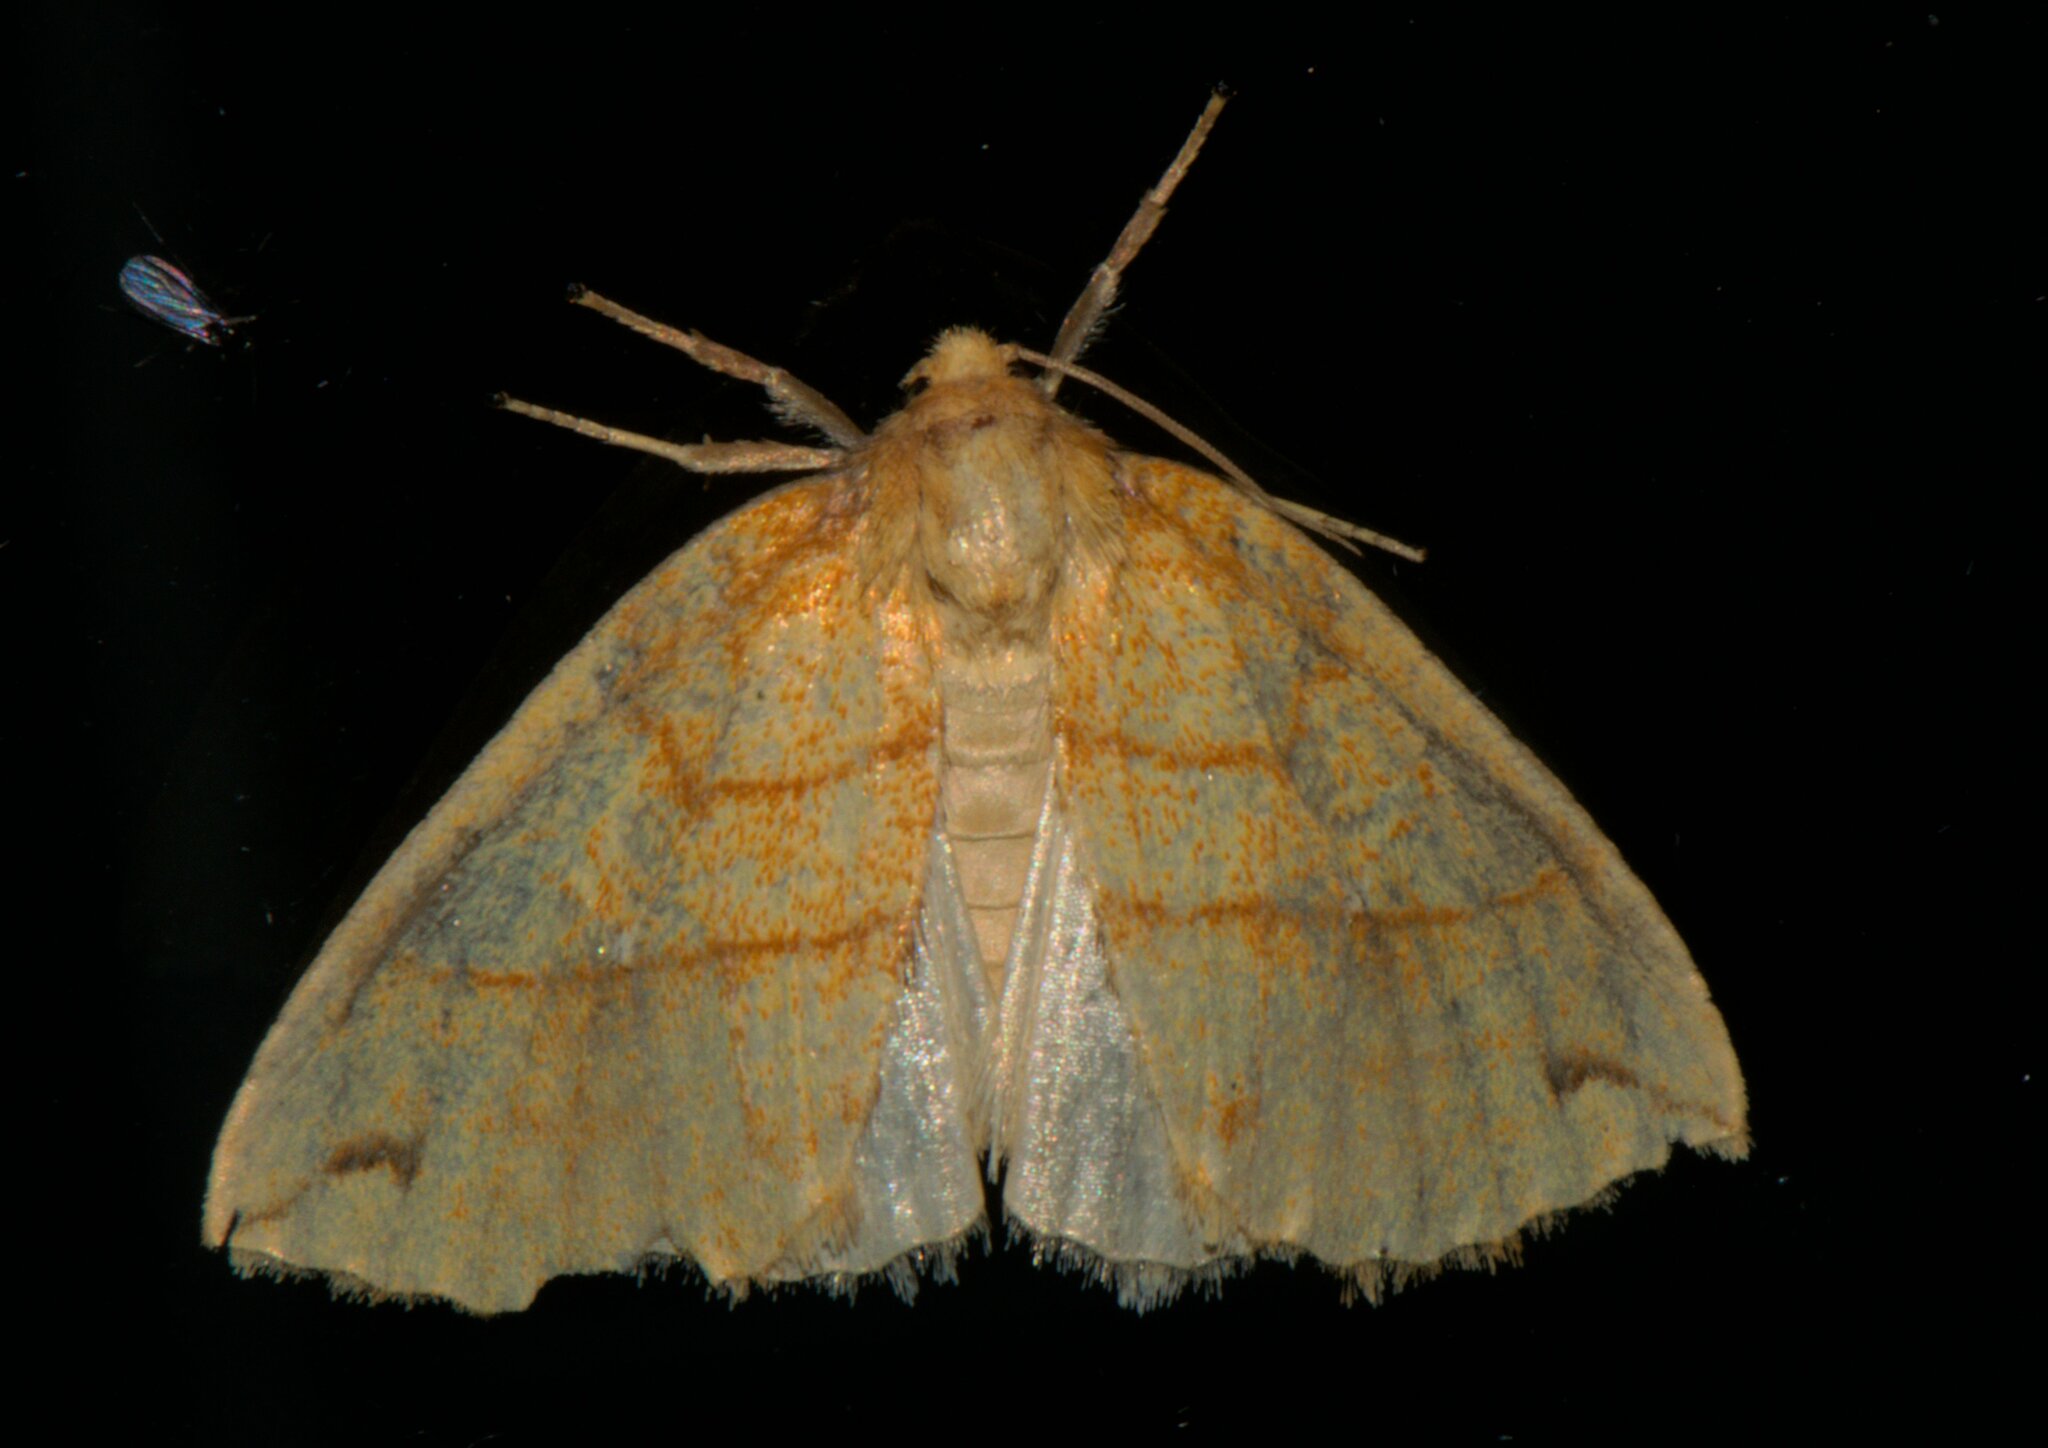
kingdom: Animalia
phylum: Arthropoda
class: Insecta
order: Lepidoptera
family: Noctuidae
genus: Xanthia
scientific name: Xanthia rectilineata
